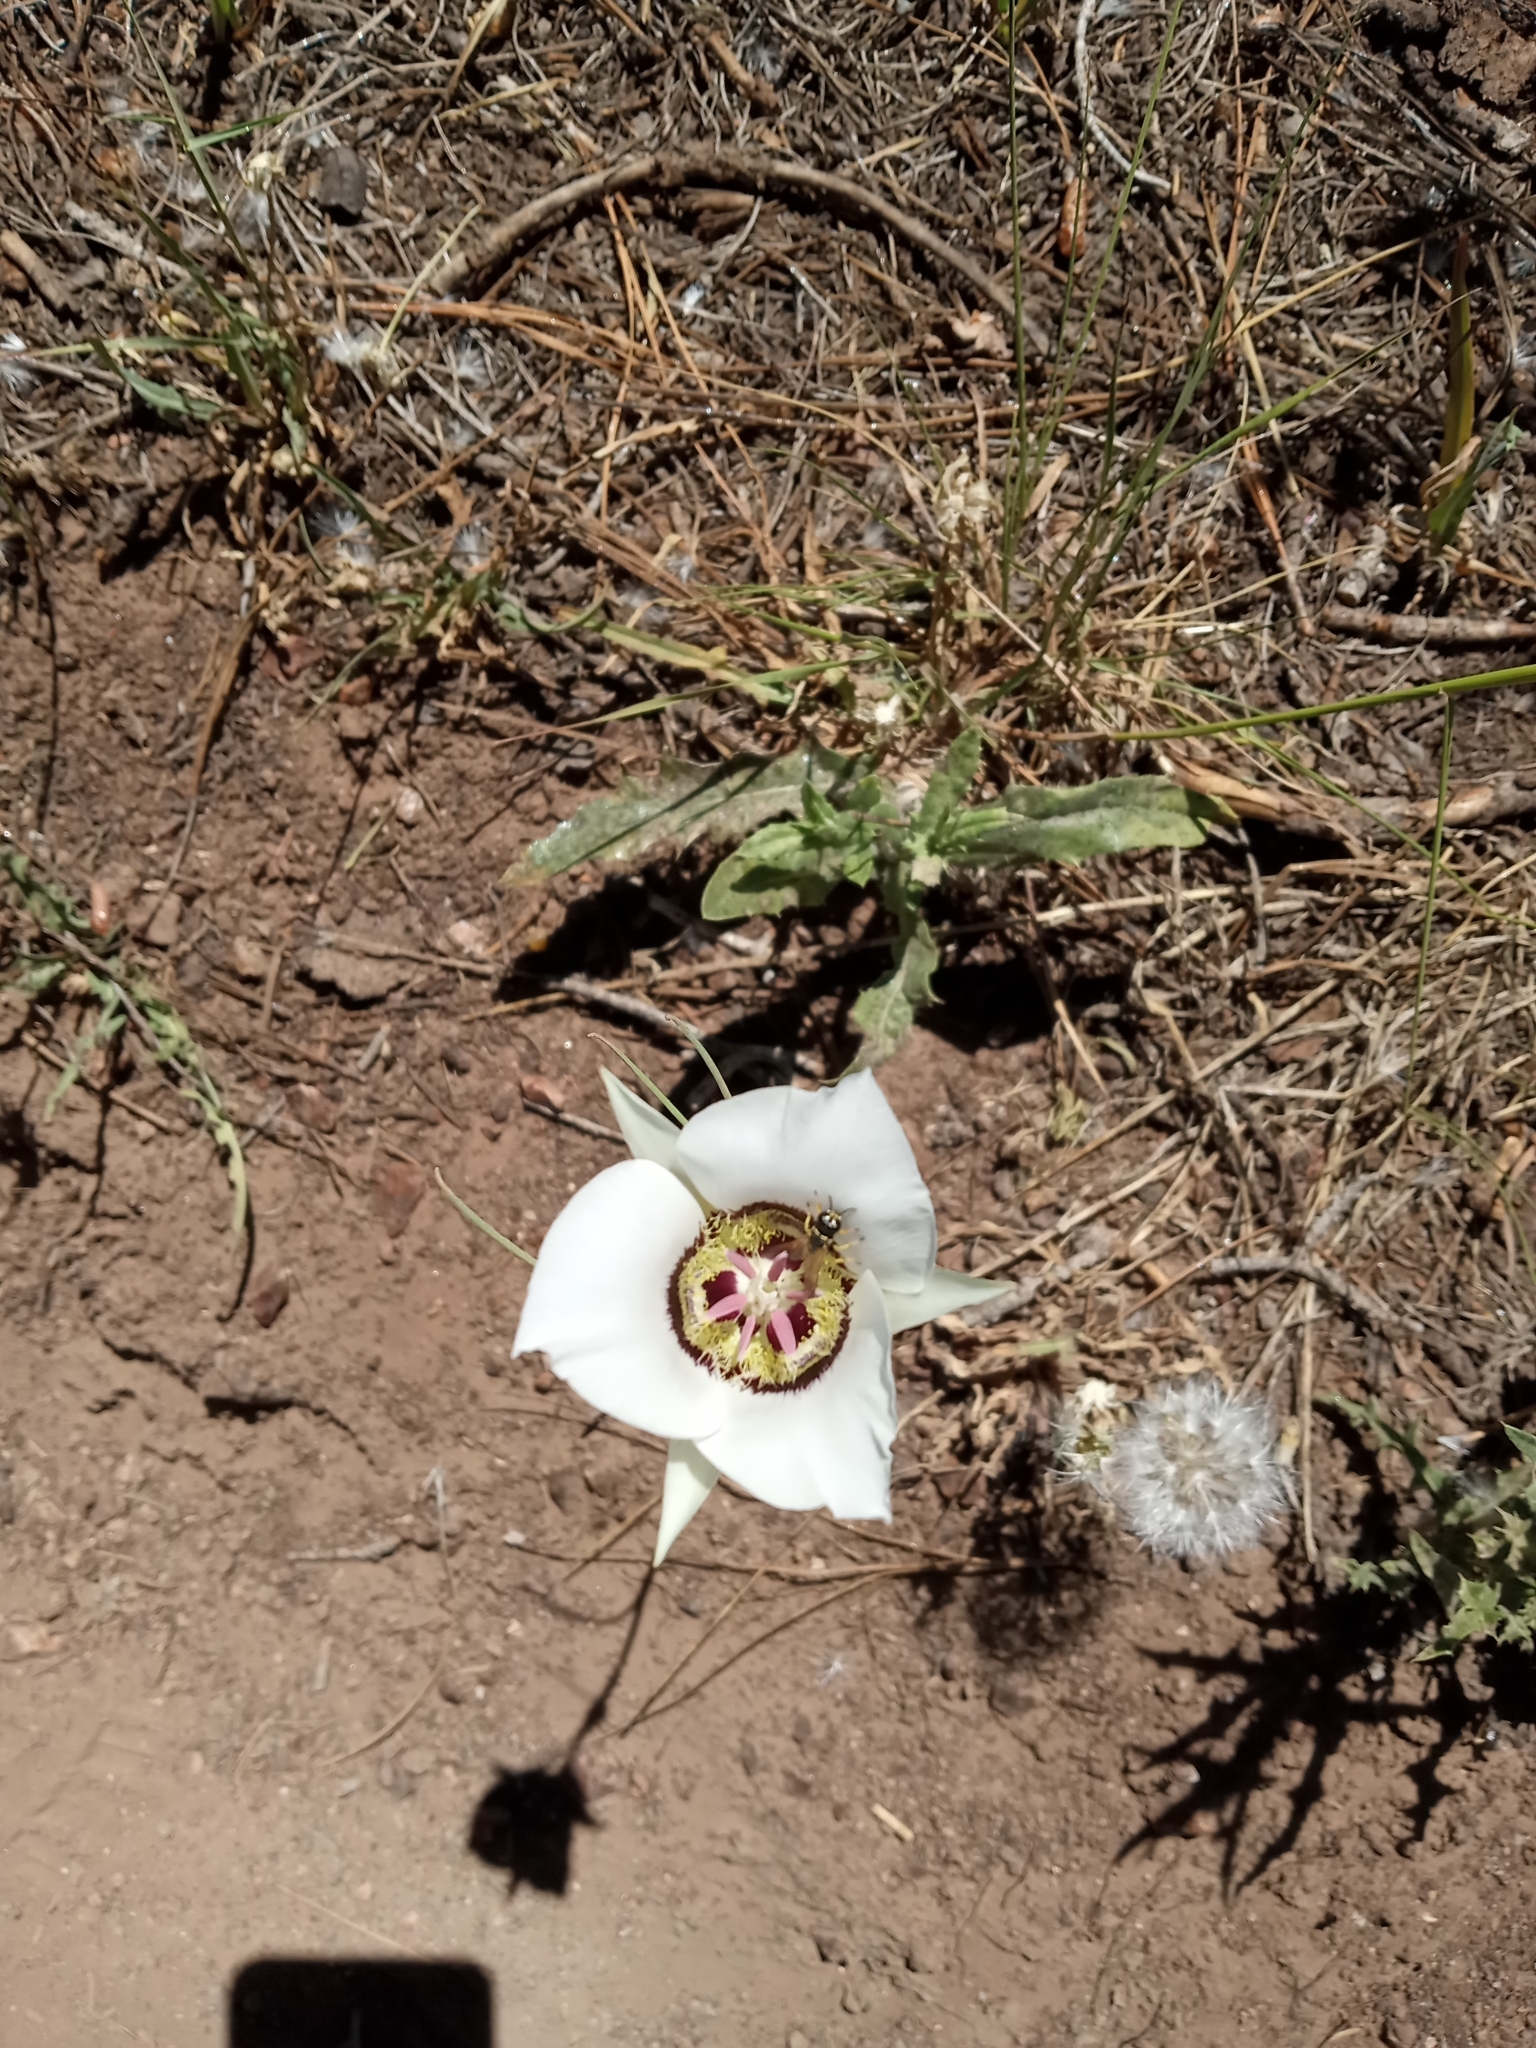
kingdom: Plantae
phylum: Tracheophyta
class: Liliopsida
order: Liliales
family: Liliaceae
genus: Calochortus
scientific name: Calochortus ambiguus
